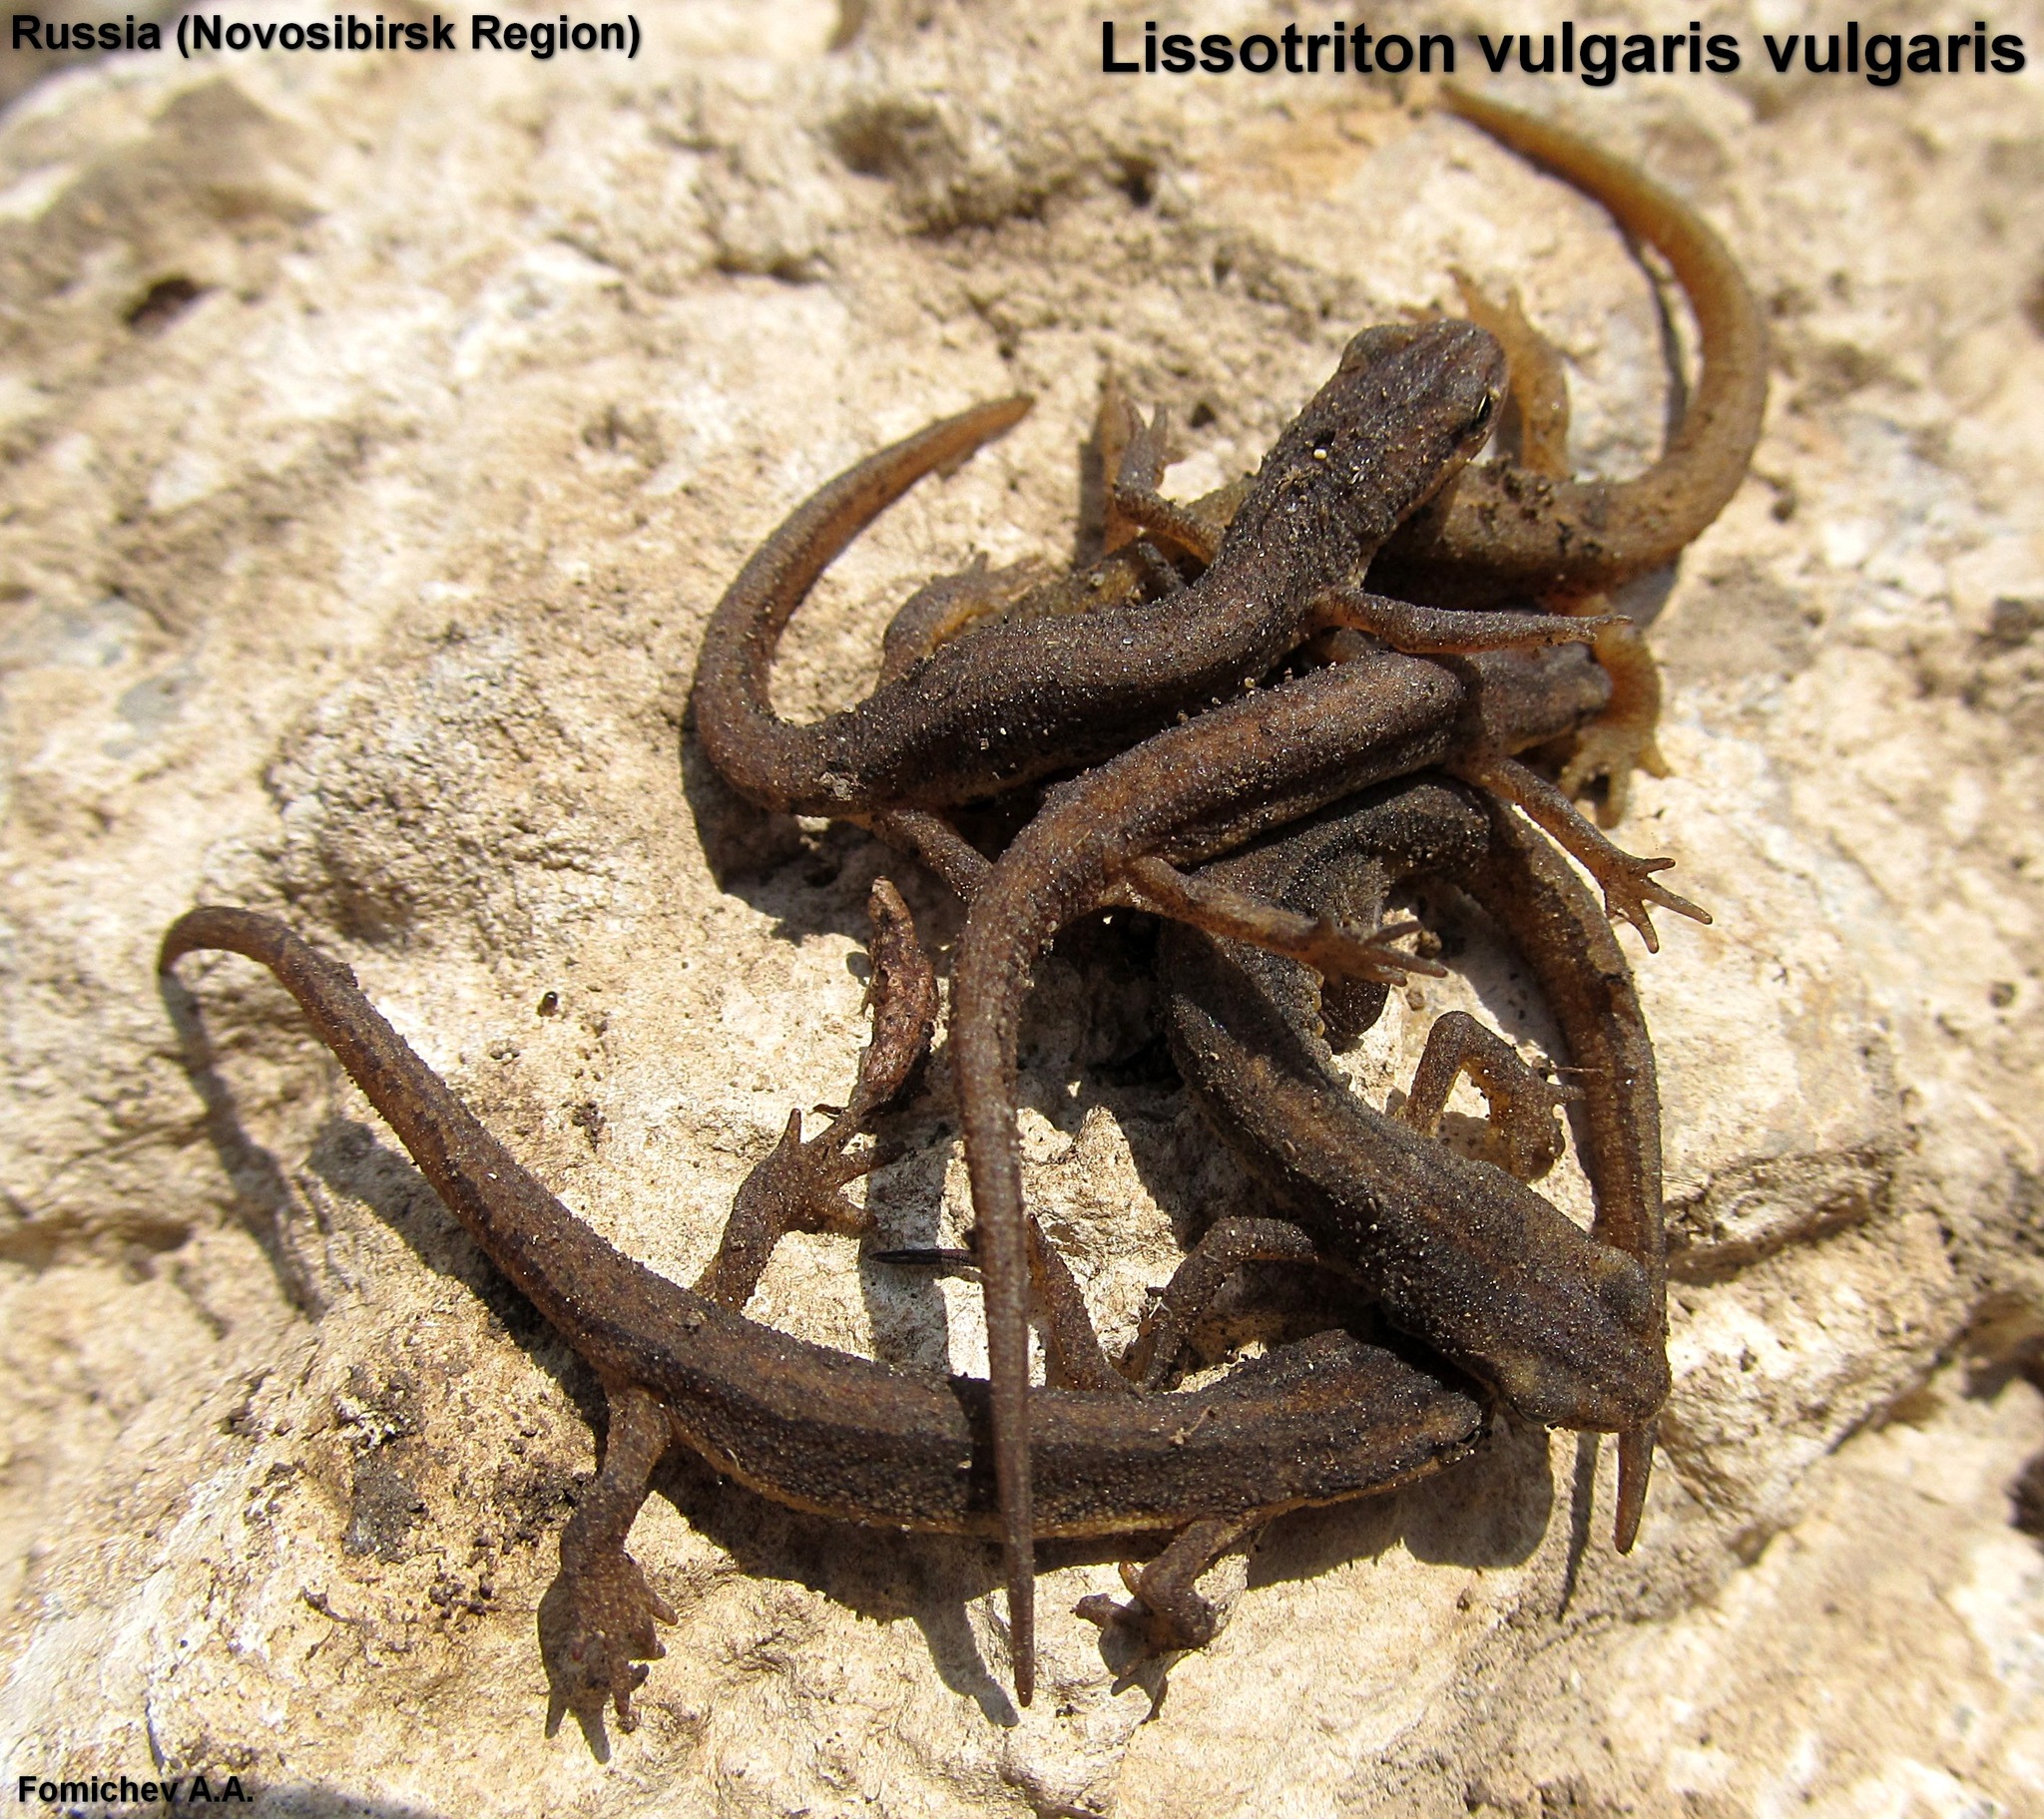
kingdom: Animalia
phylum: Chordata
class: Amphibia
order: Caudata
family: Salamandridae
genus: Lissotriton
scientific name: Lissotriton vulgaris
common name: Smooth newt
